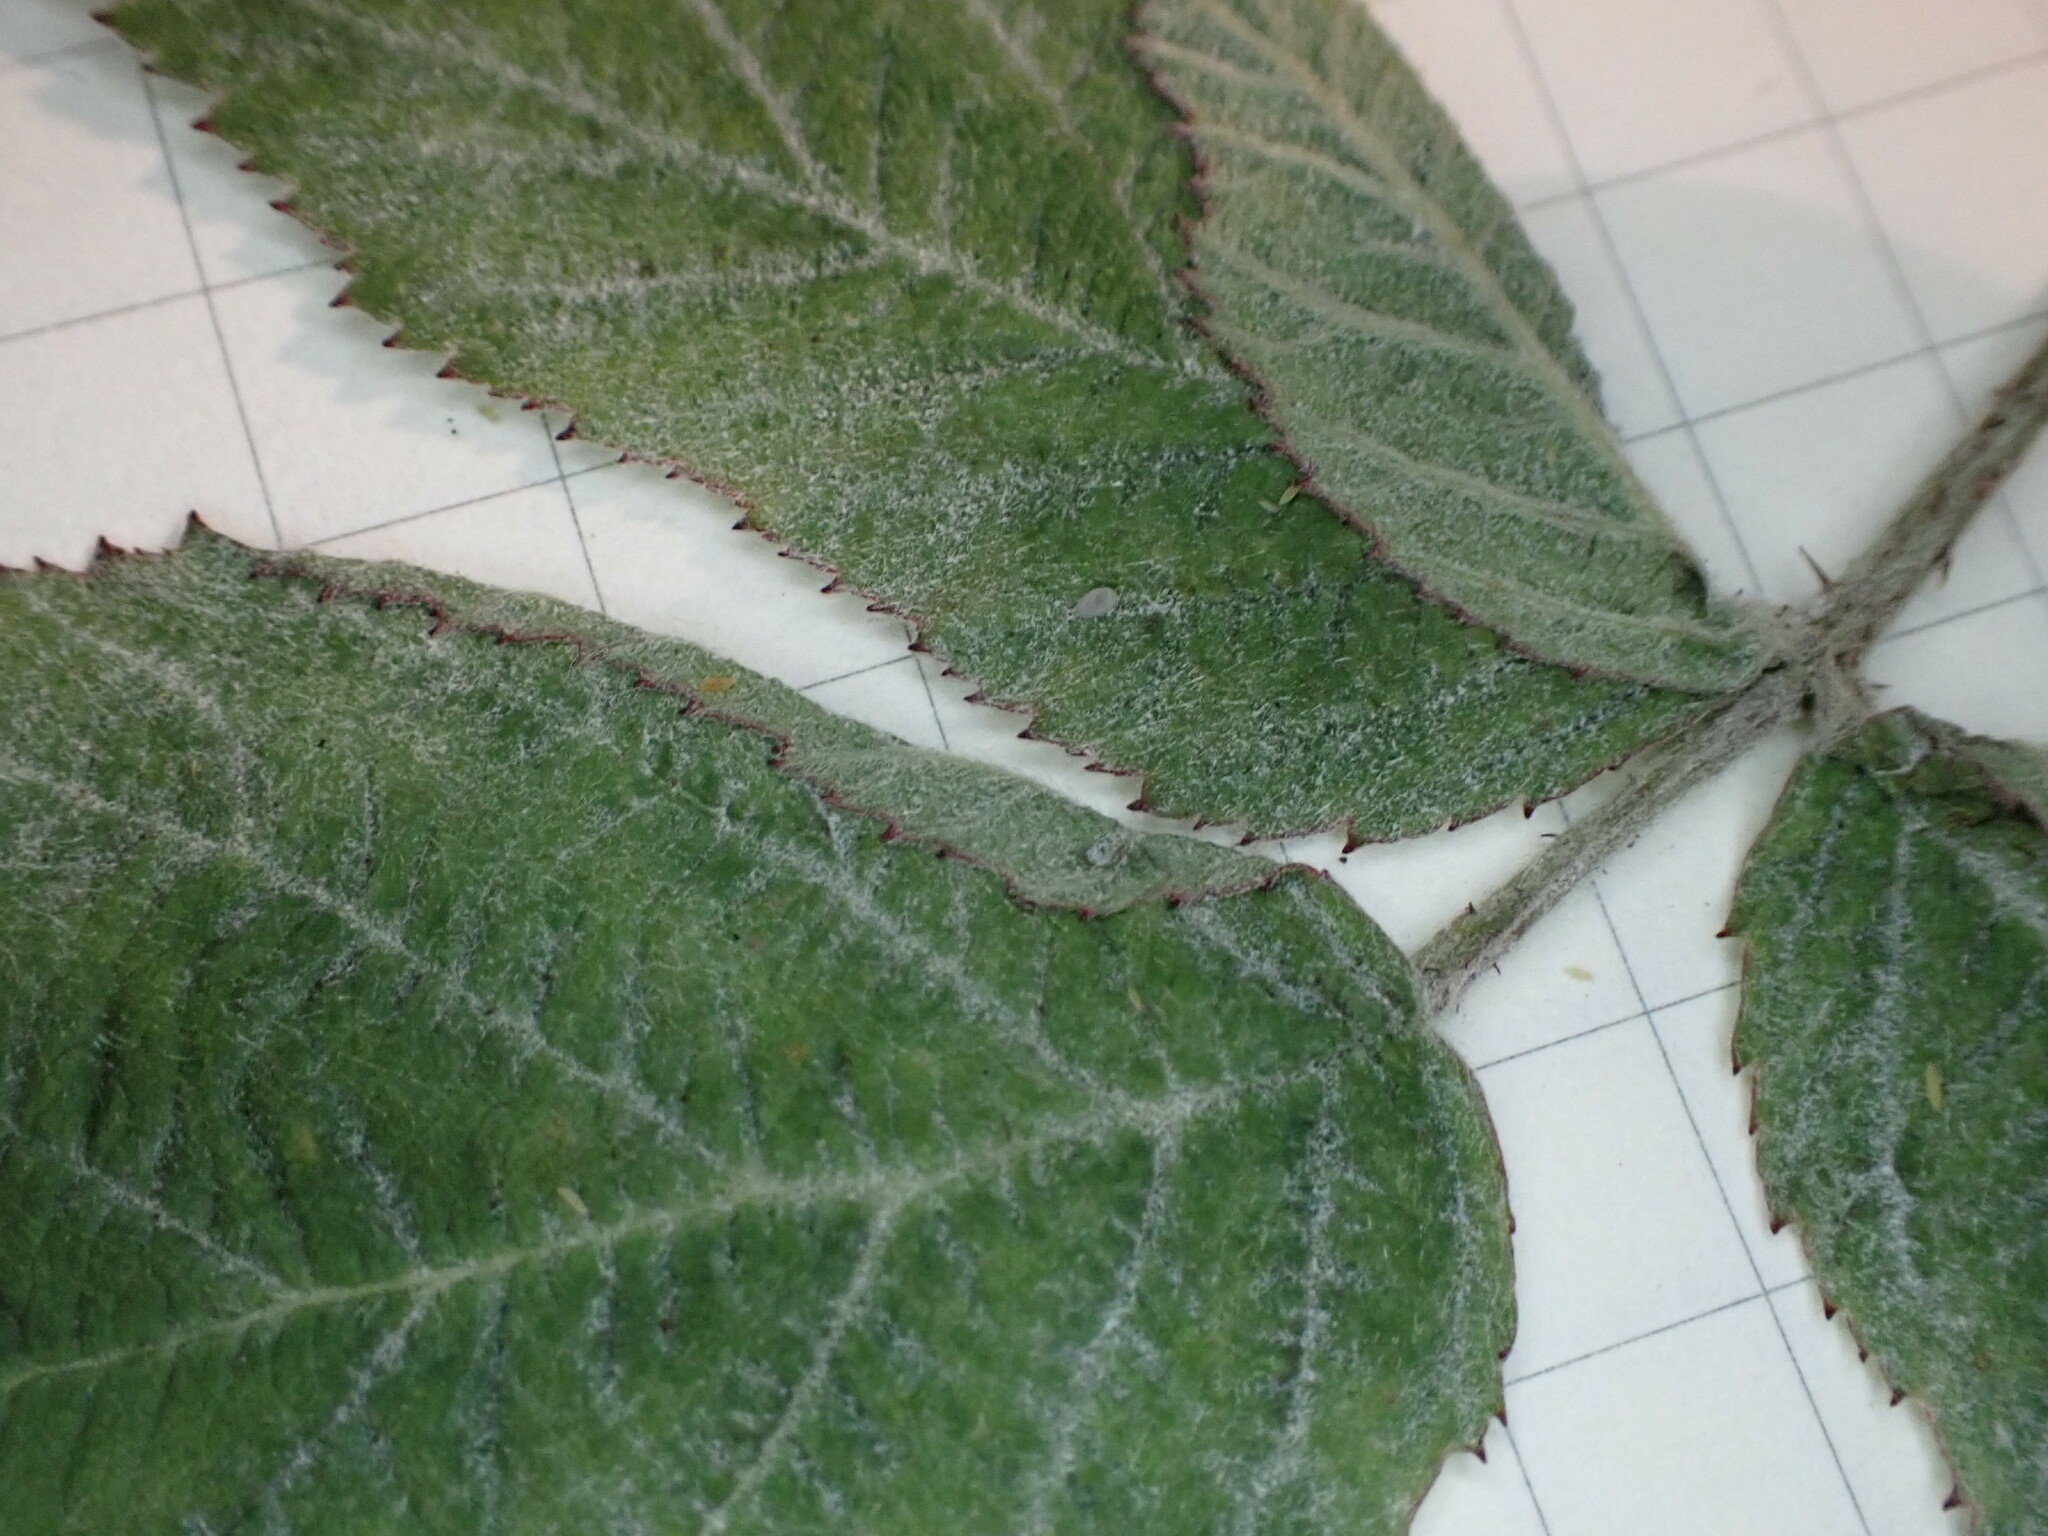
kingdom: Fungi
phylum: Ascomycota
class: Leotiomycetes
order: Helotiales
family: Erysiphaceae
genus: Podosphaera
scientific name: Podosphaera aphanis
